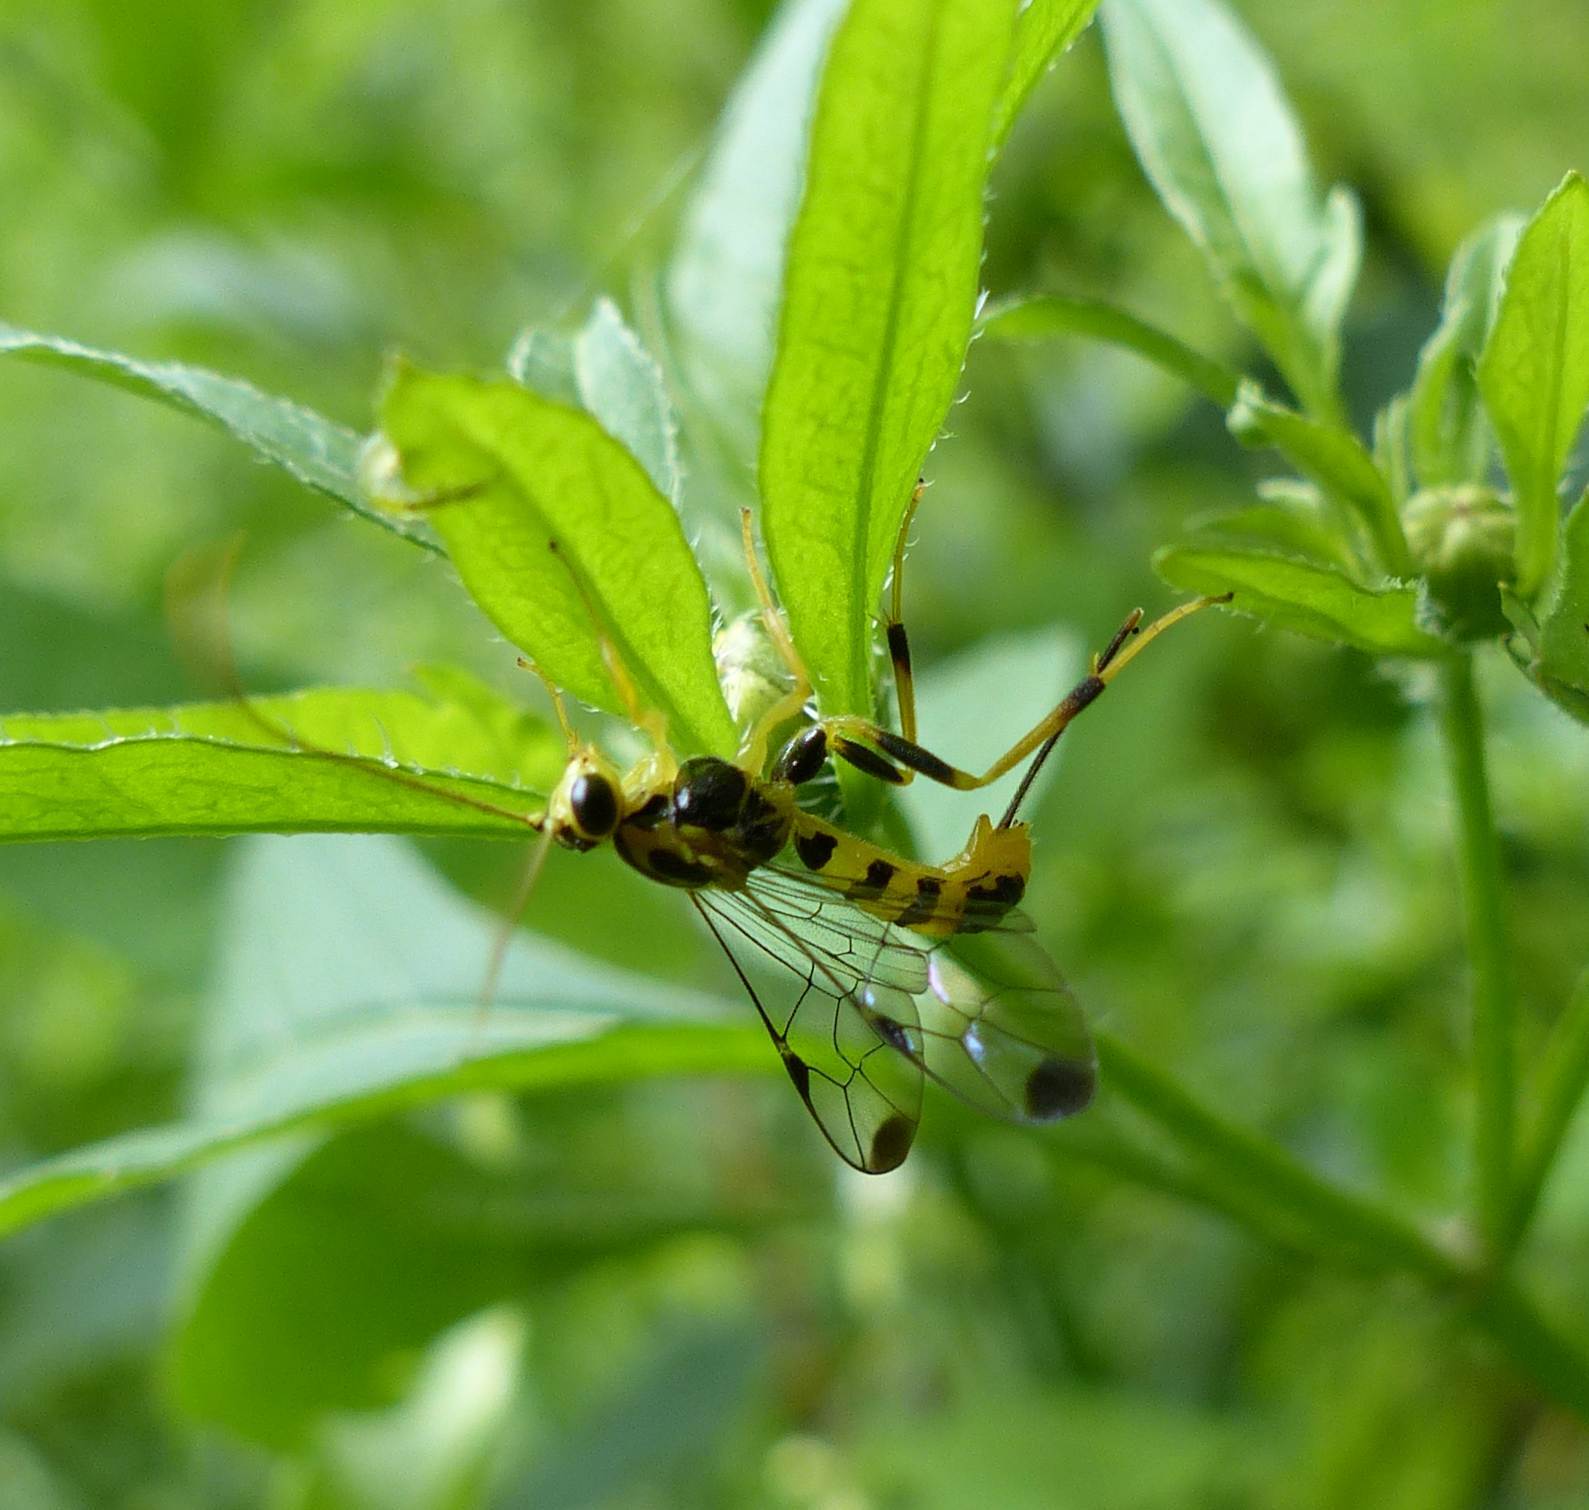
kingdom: Animalia
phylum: Arthropoda
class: Insecta
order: Hymenoptera
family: Ichneumonidae
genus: Lycorina
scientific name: Lycorina glaucomata
